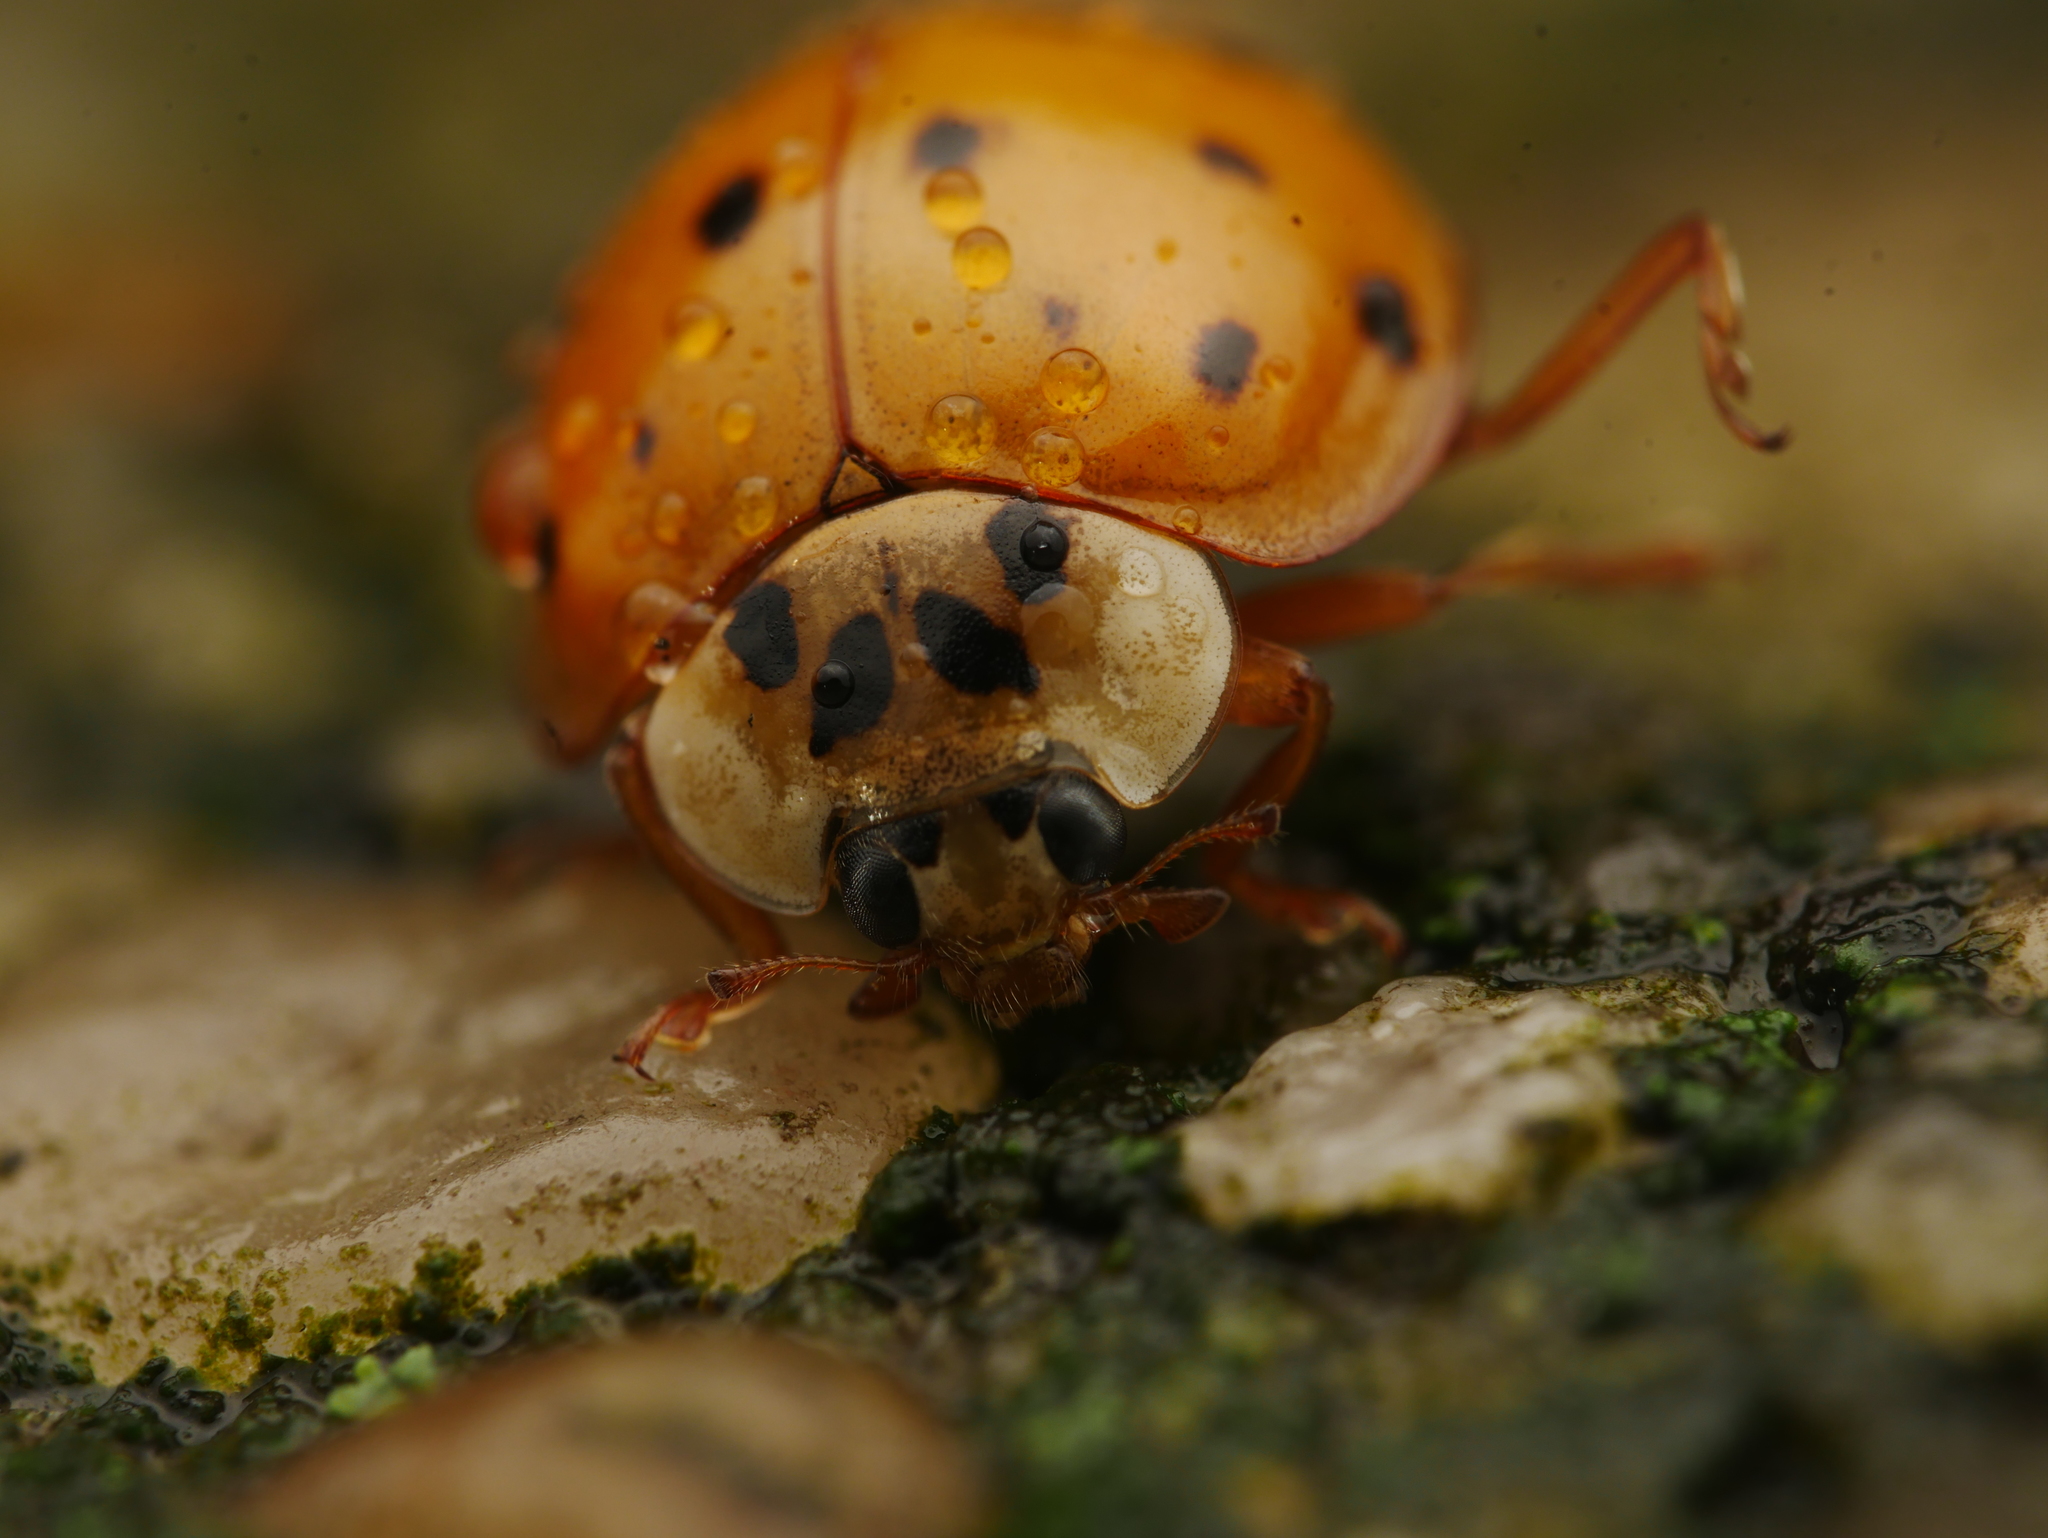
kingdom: Animalia
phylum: Arthropoda
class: Insecta
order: Coleoptera
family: Coccinellidae
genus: Harmonia
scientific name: Harmonia axyridis
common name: Harlequin ladybird
